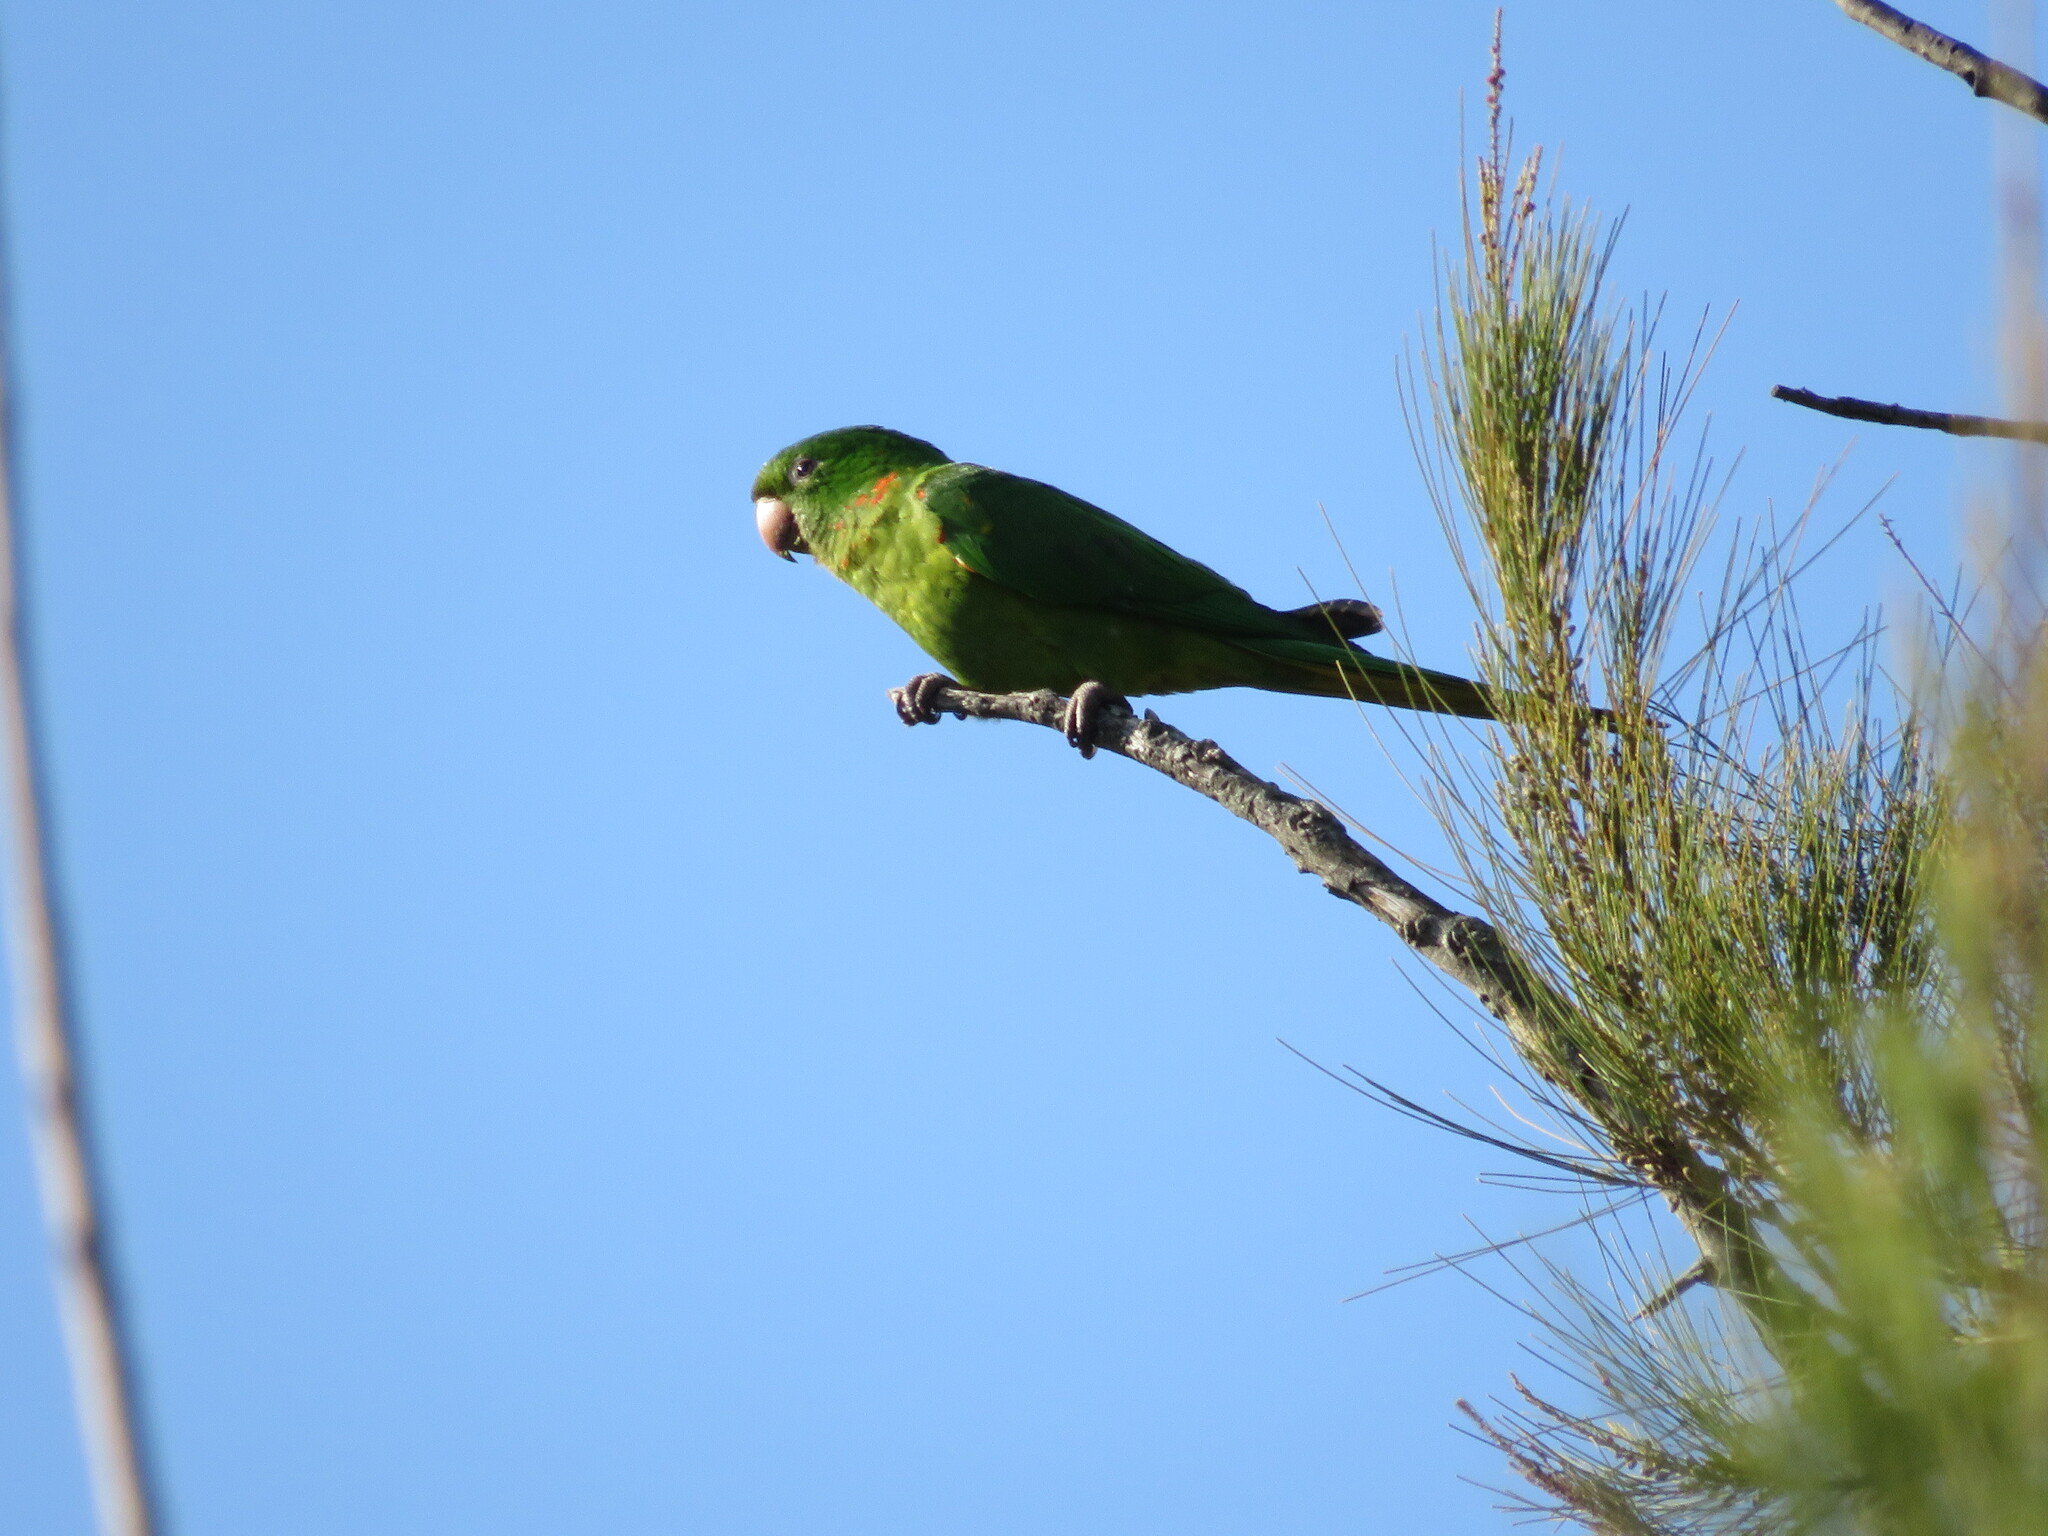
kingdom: Animalia
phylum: Chordata
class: Aves
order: Psittaciformes
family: Psittacidae
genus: Aratinga
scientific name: Aratinga leucophthalma
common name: White-eyed parakeet
